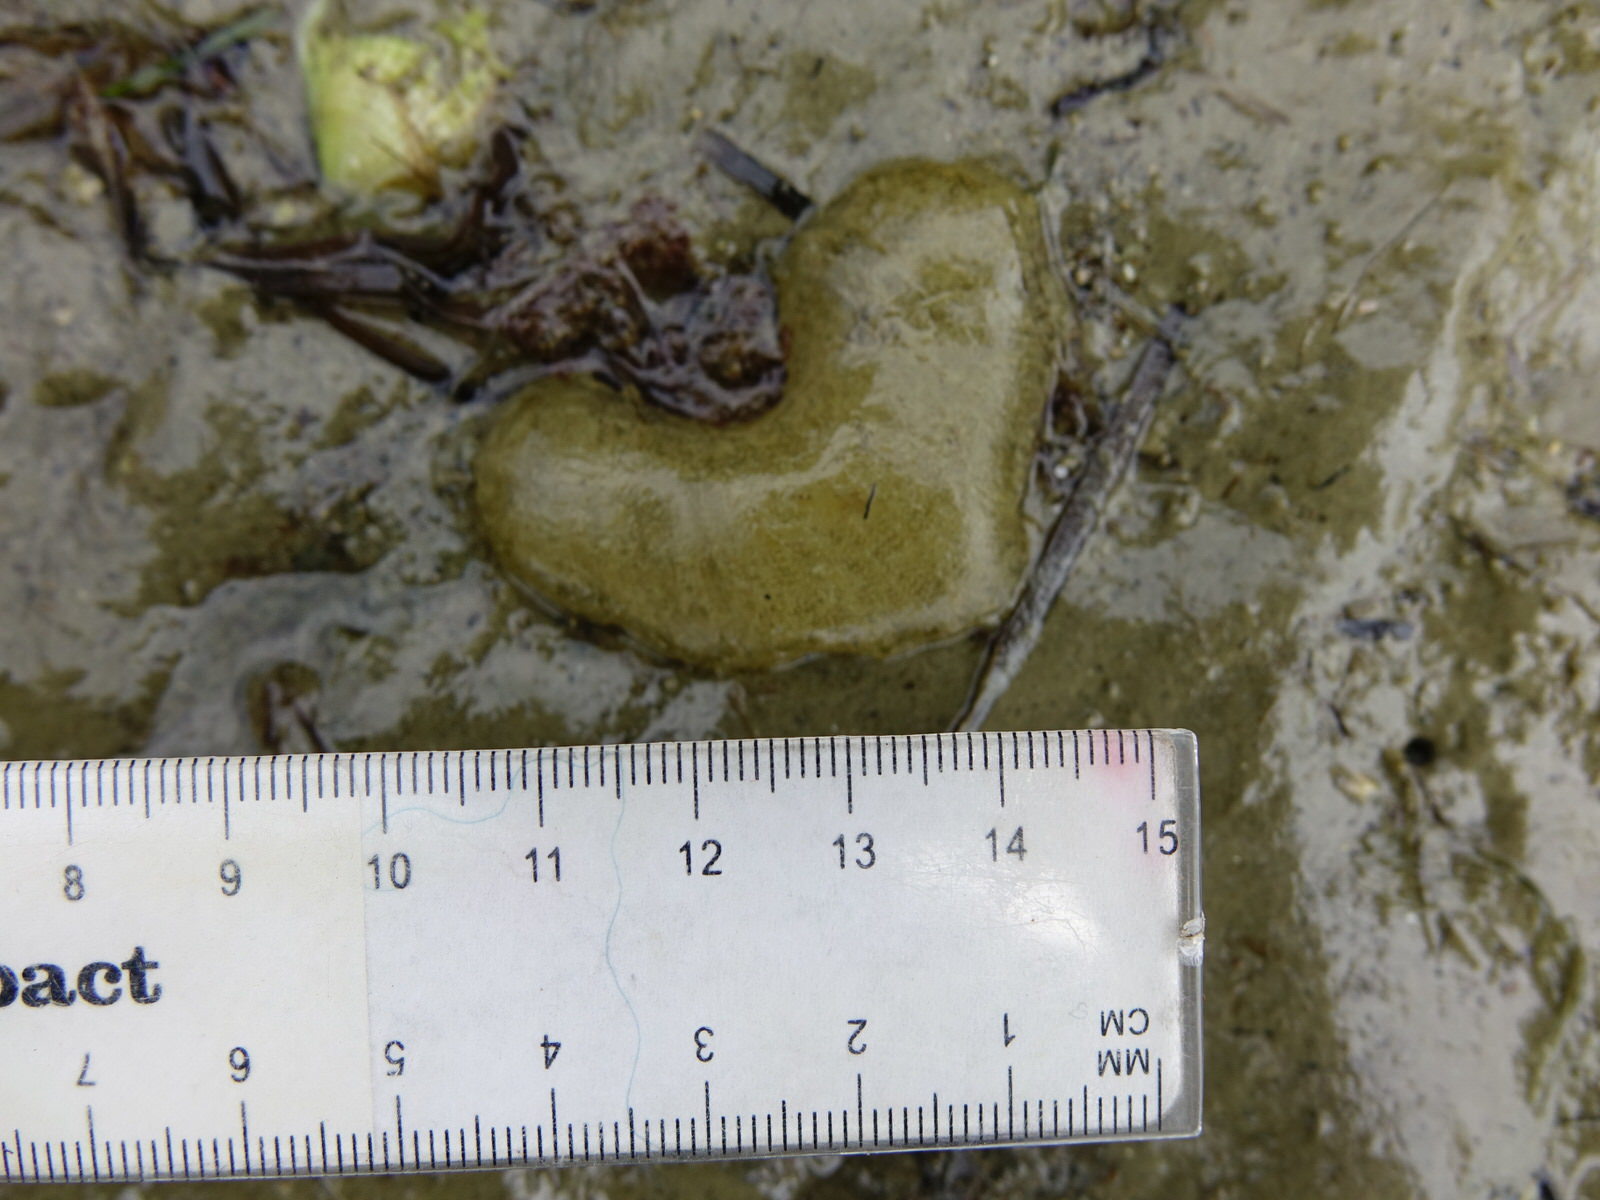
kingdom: Animalia
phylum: Mollusca
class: Gastropoda
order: Cephalaspidea
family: Haminoeidae
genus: Papawera
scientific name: Papawera zelandiae
